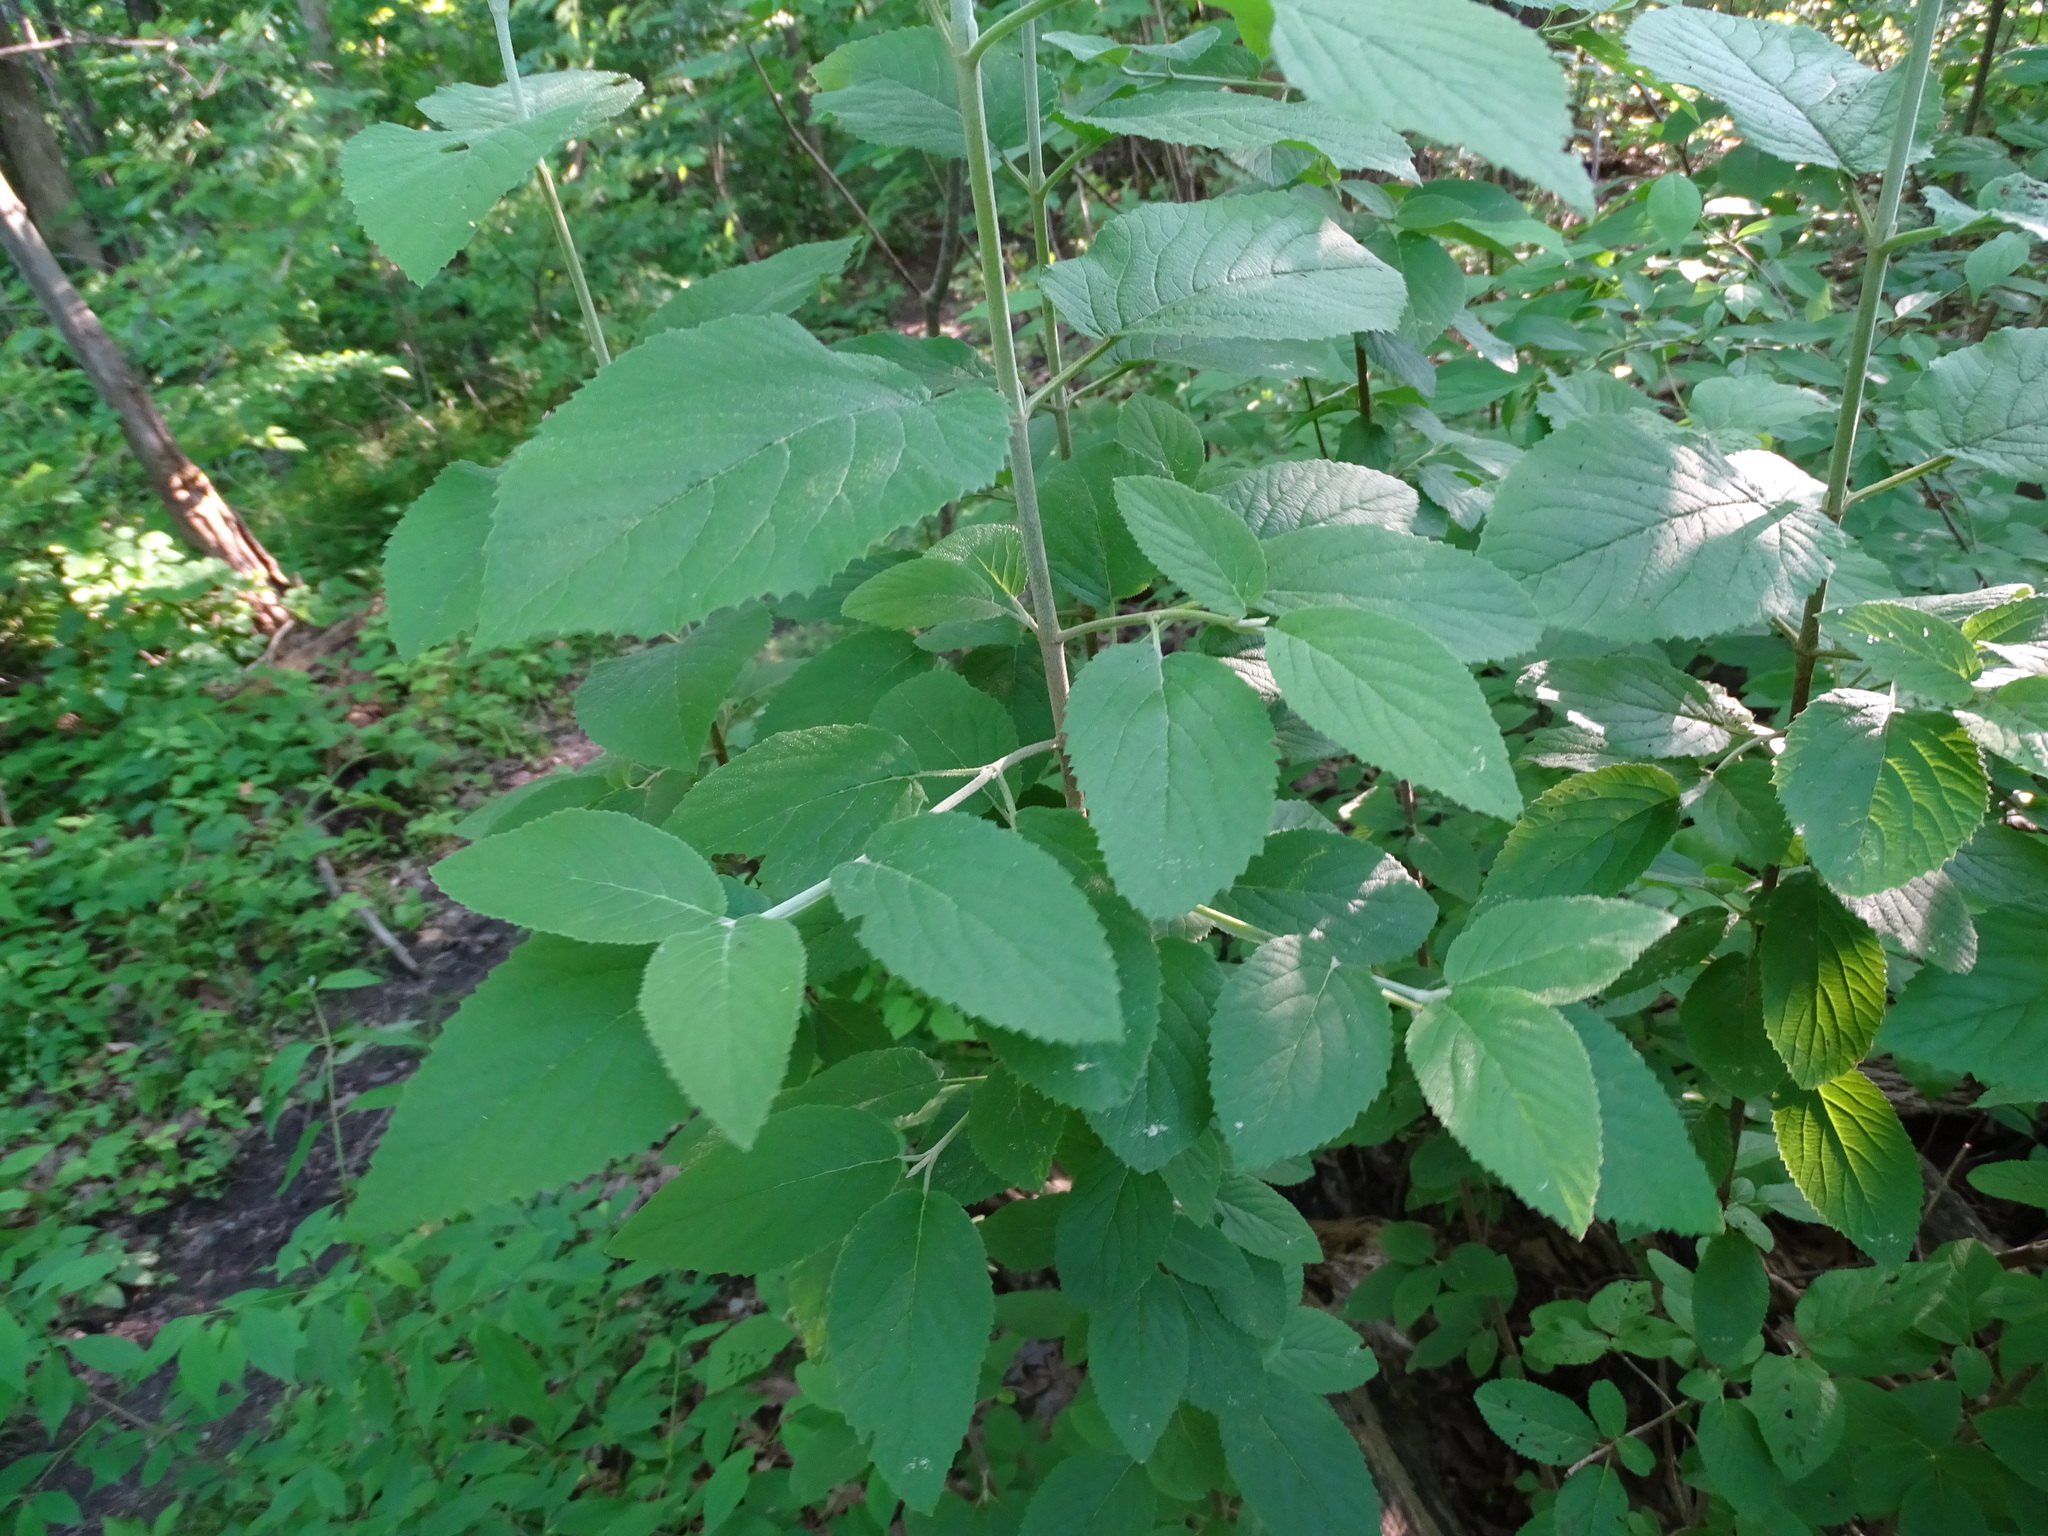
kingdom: Plantae
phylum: Tracheophyta
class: Magnoliopsida
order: Dipsacales
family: Viburnaceae
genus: Viburnum
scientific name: Viburnum lantana
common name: Wayfaring tree
